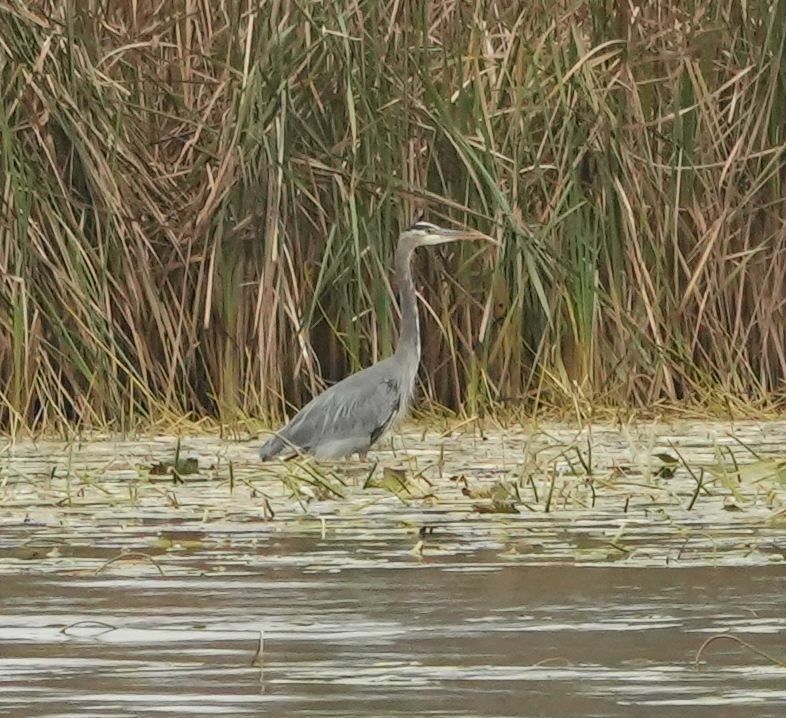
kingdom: Animalia
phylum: Chordata
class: Aves
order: Pelecaniformes
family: Ardeidae
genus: Ardea
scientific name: Ardea herodias
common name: Great blue heron
